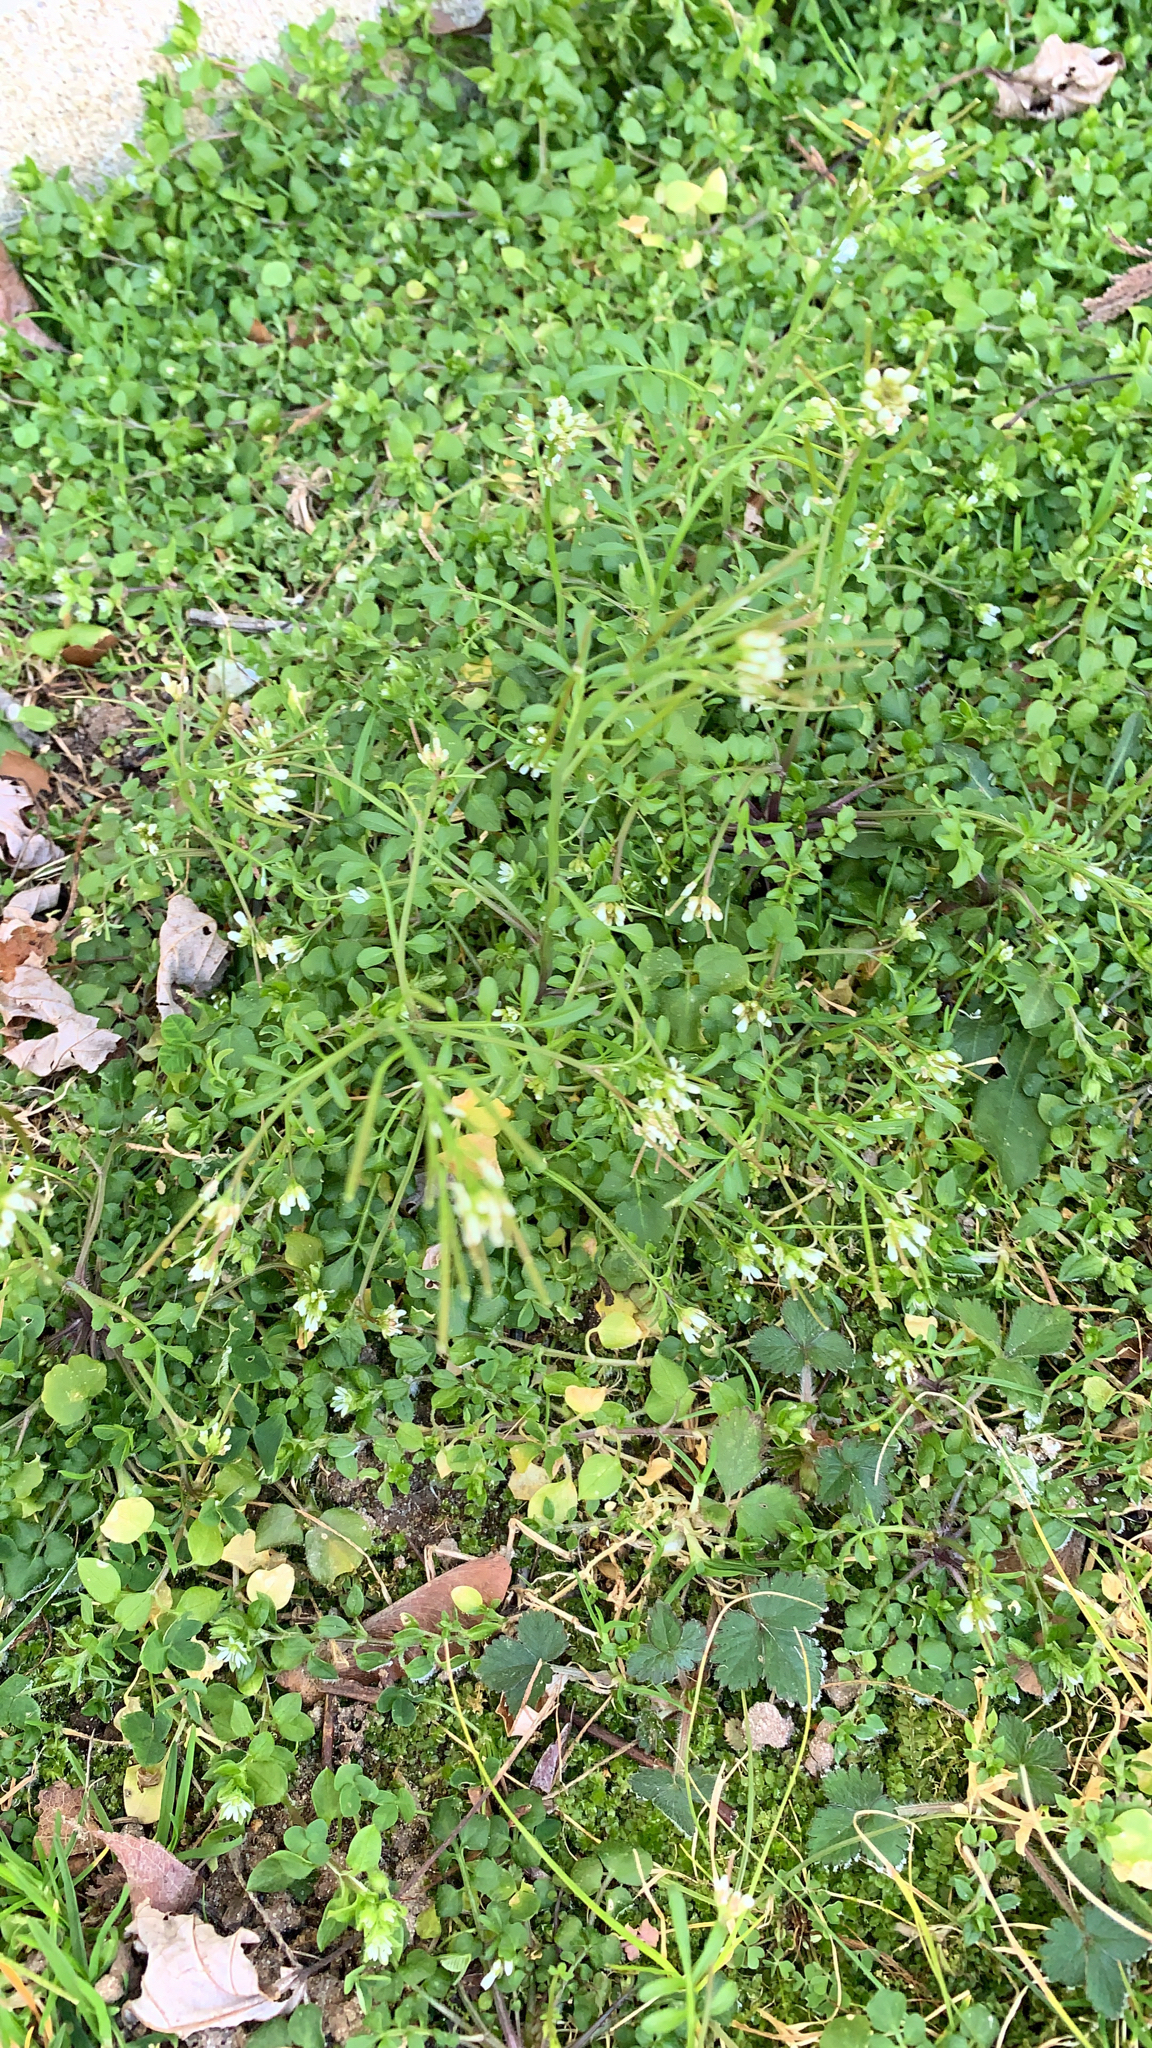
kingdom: Plantae
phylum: Tracheophyta
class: Magnoliopsida
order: Brassicales
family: Brassicaceae
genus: Cardamine
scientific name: Cardamine hirsuta
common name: Hairy bittercress
